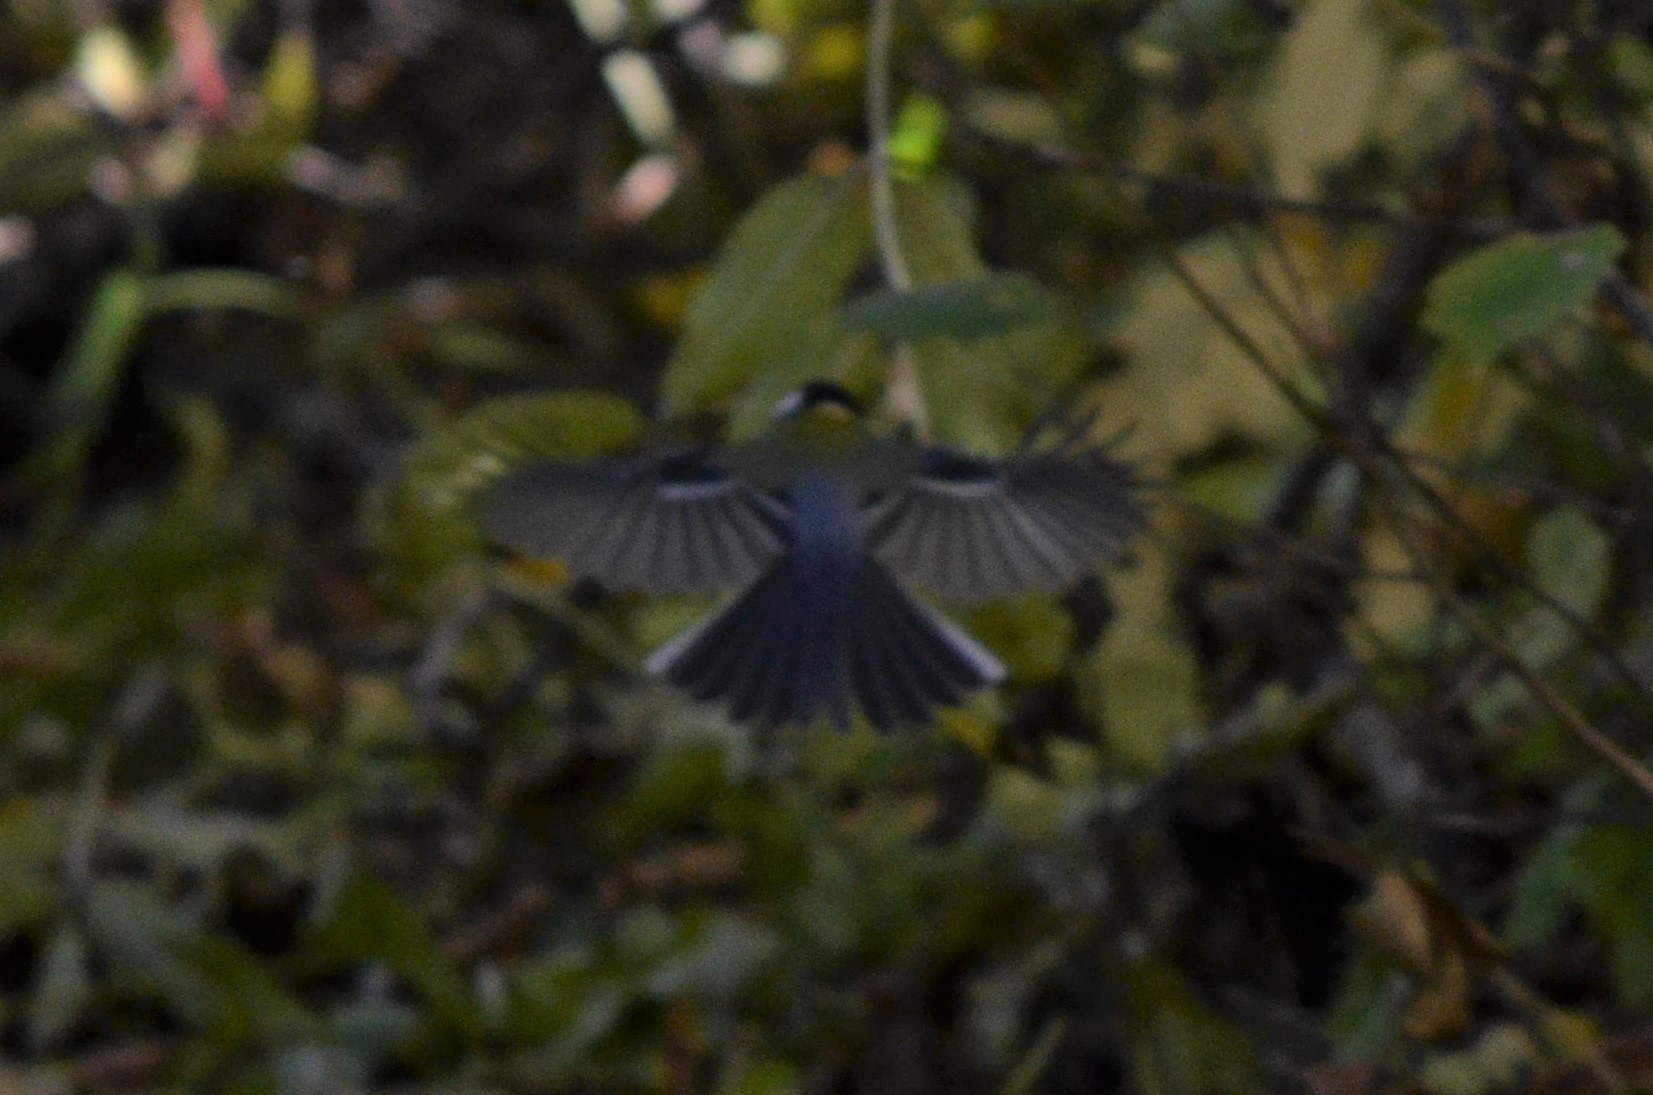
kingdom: Animalia
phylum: Chordata
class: Aves
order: Passeriformes
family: Paridae
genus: Parus
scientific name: Parus major
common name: Great tit
